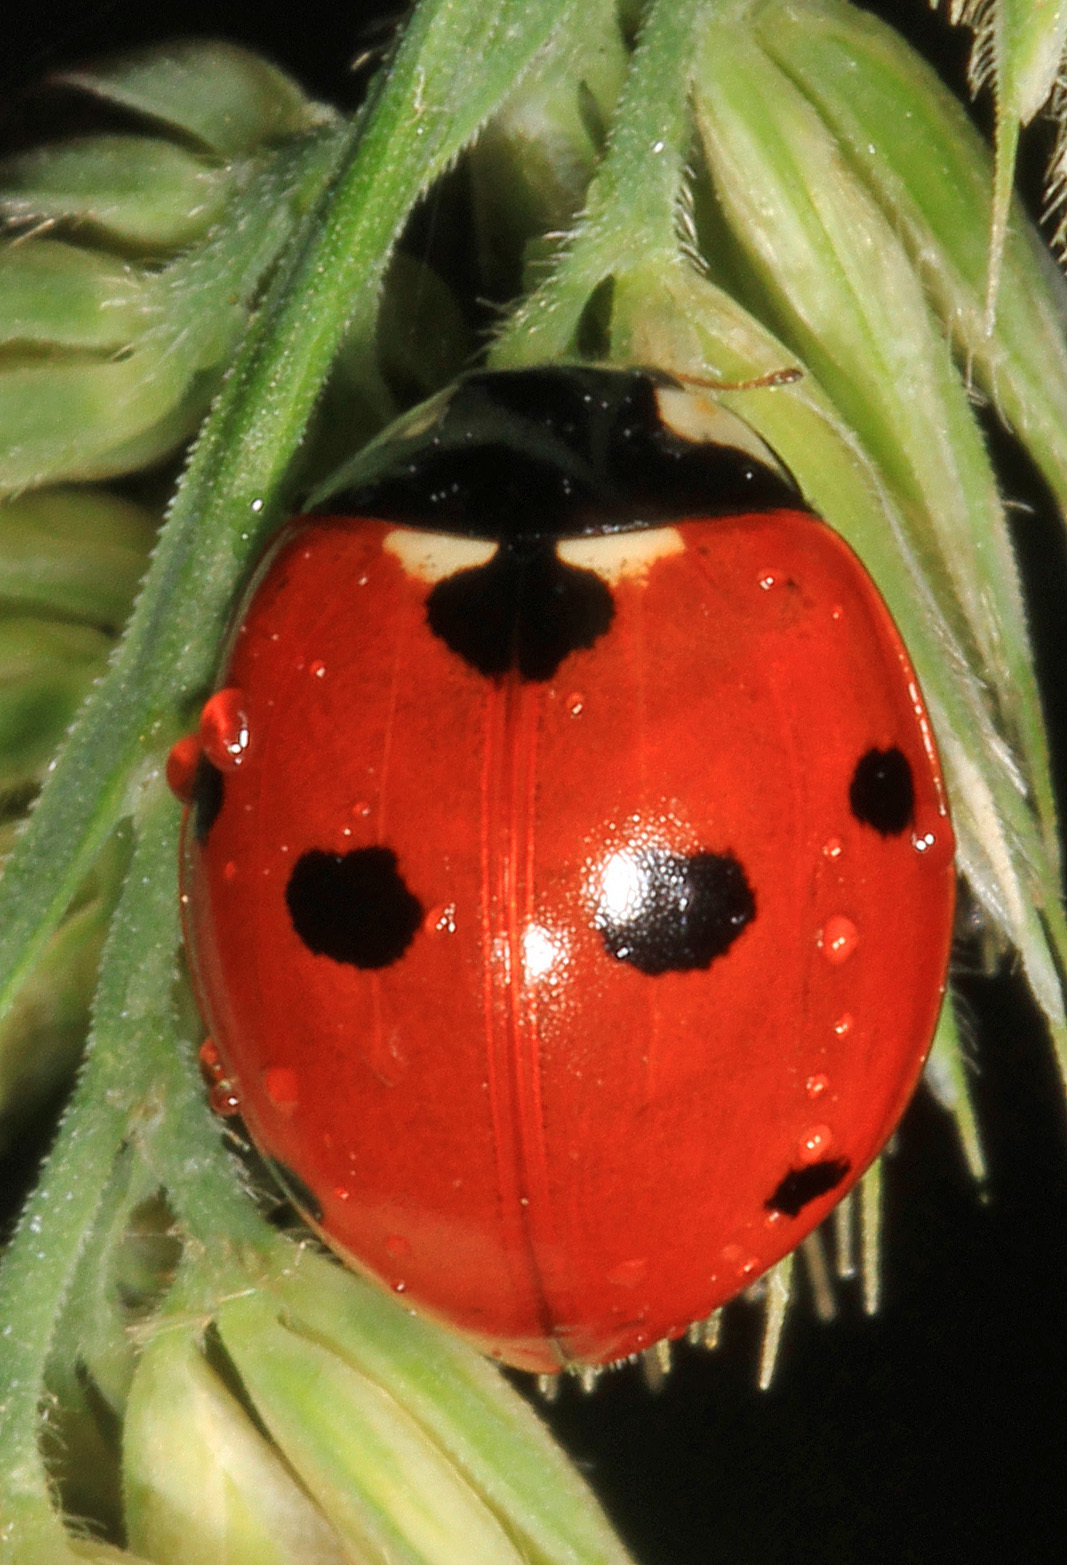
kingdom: Animalia
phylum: Arthropoda
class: Insecta
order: Coleoptera
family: Coccinellidae
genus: Coccinella
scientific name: Coccinella septempunctata
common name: Sevenspotted lady beetle
